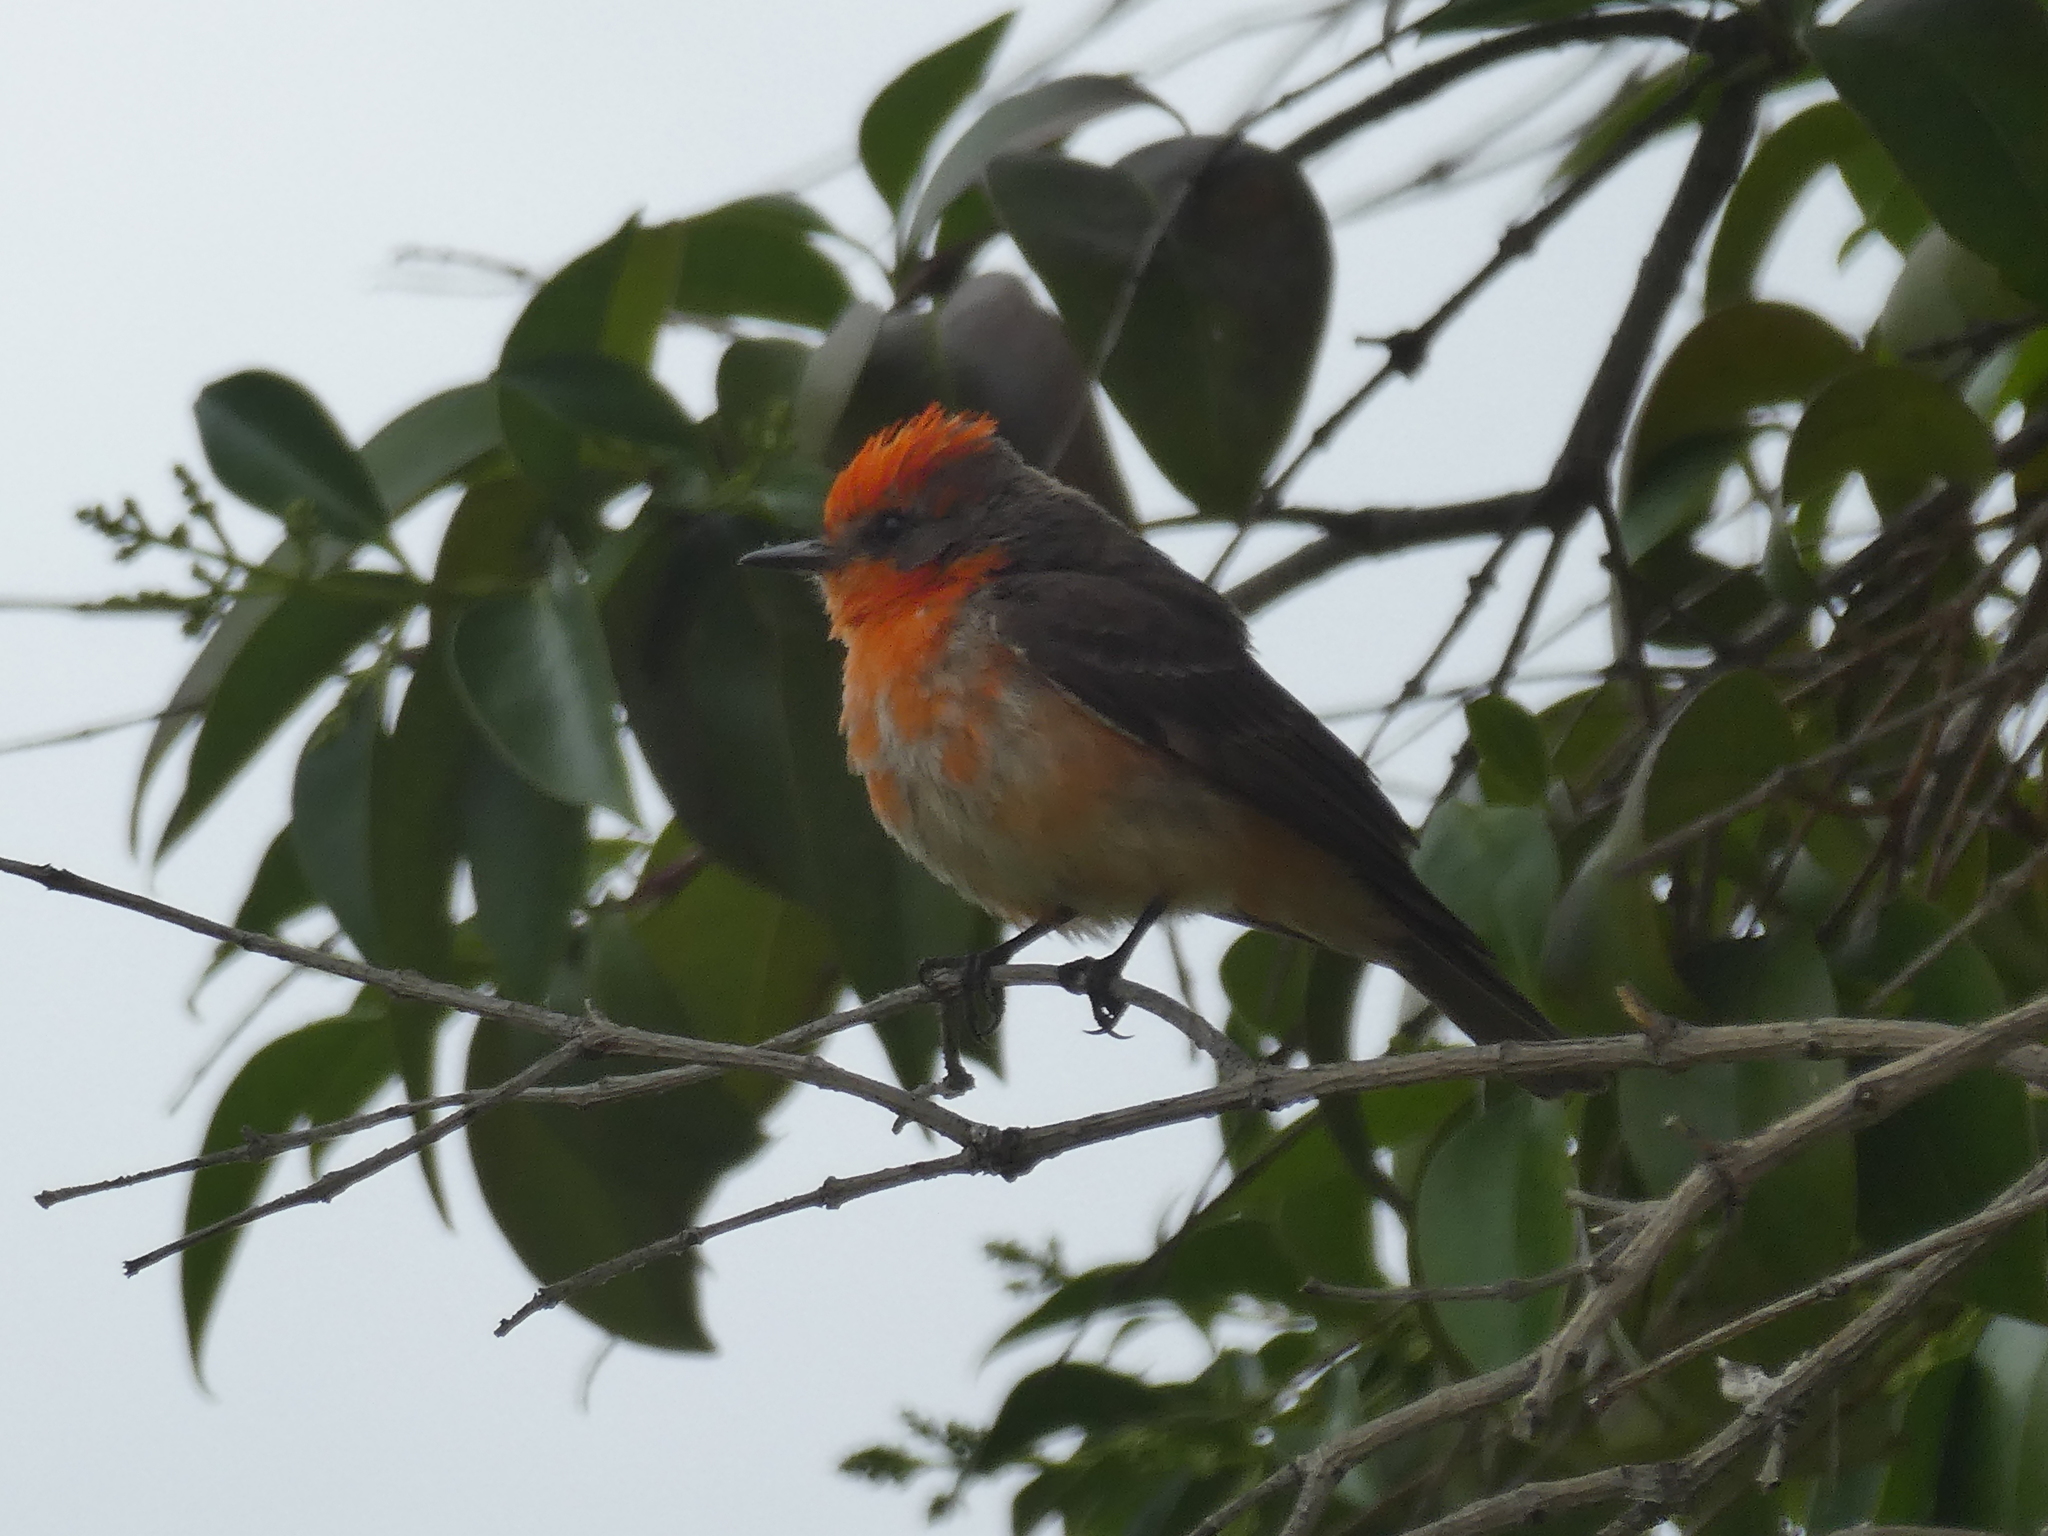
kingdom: Animalia
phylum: Chordata
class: Aves
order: Passeriformes
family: Tyrannidae
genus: Pyrocephalus
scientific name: Pyrocephalus rubinus
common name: Vermilion flycatcher
